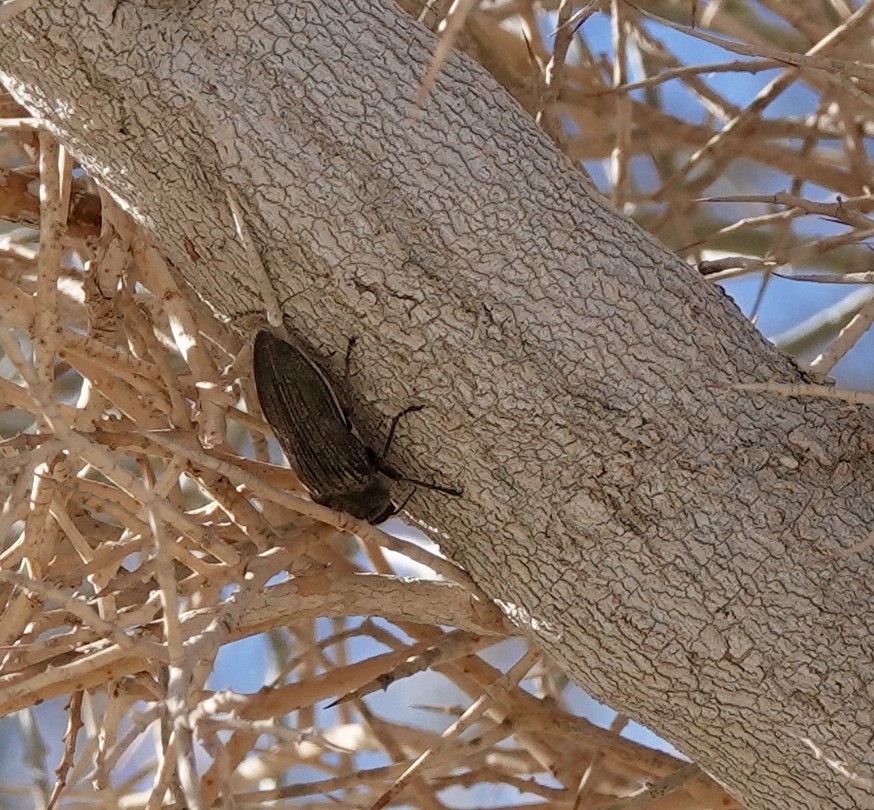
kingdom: Animalia
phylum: Arthropoda
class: Insecta
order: Coleoptera
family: Buprestidae
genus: Polycesta
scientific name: Polycesta aruensis
